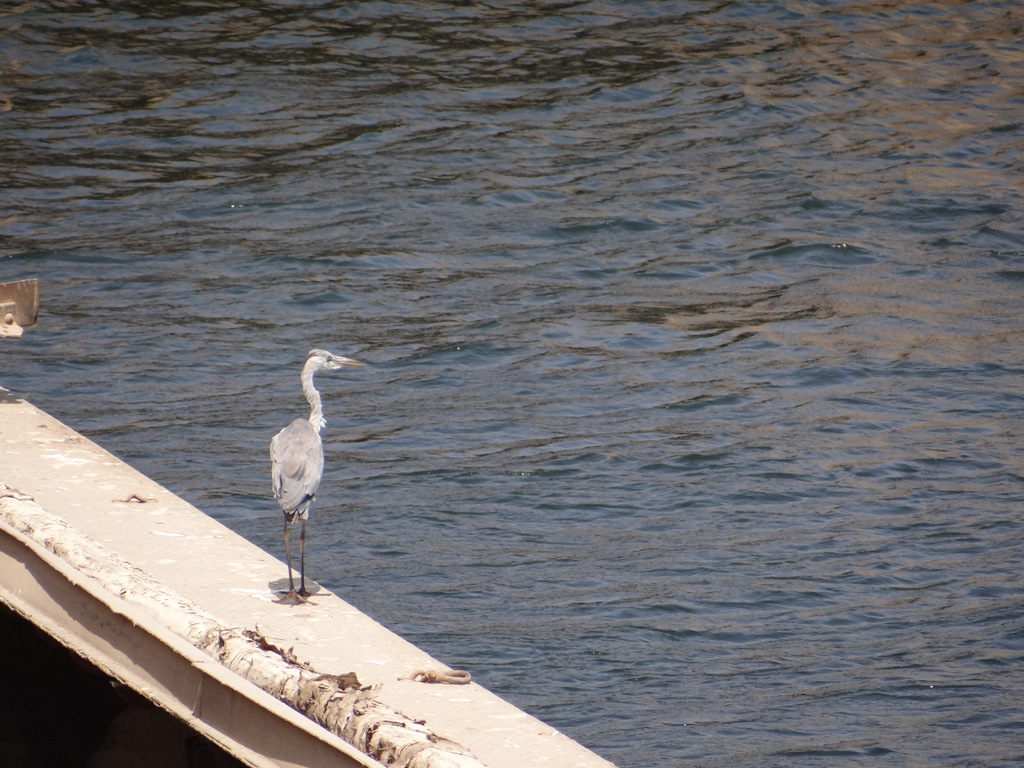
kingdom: Animalia
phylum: Chordata
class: Aves
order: Pelecaniformes
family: Ardeidae
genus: Ardea
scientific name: Ardea cinerea
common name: Grey heron
